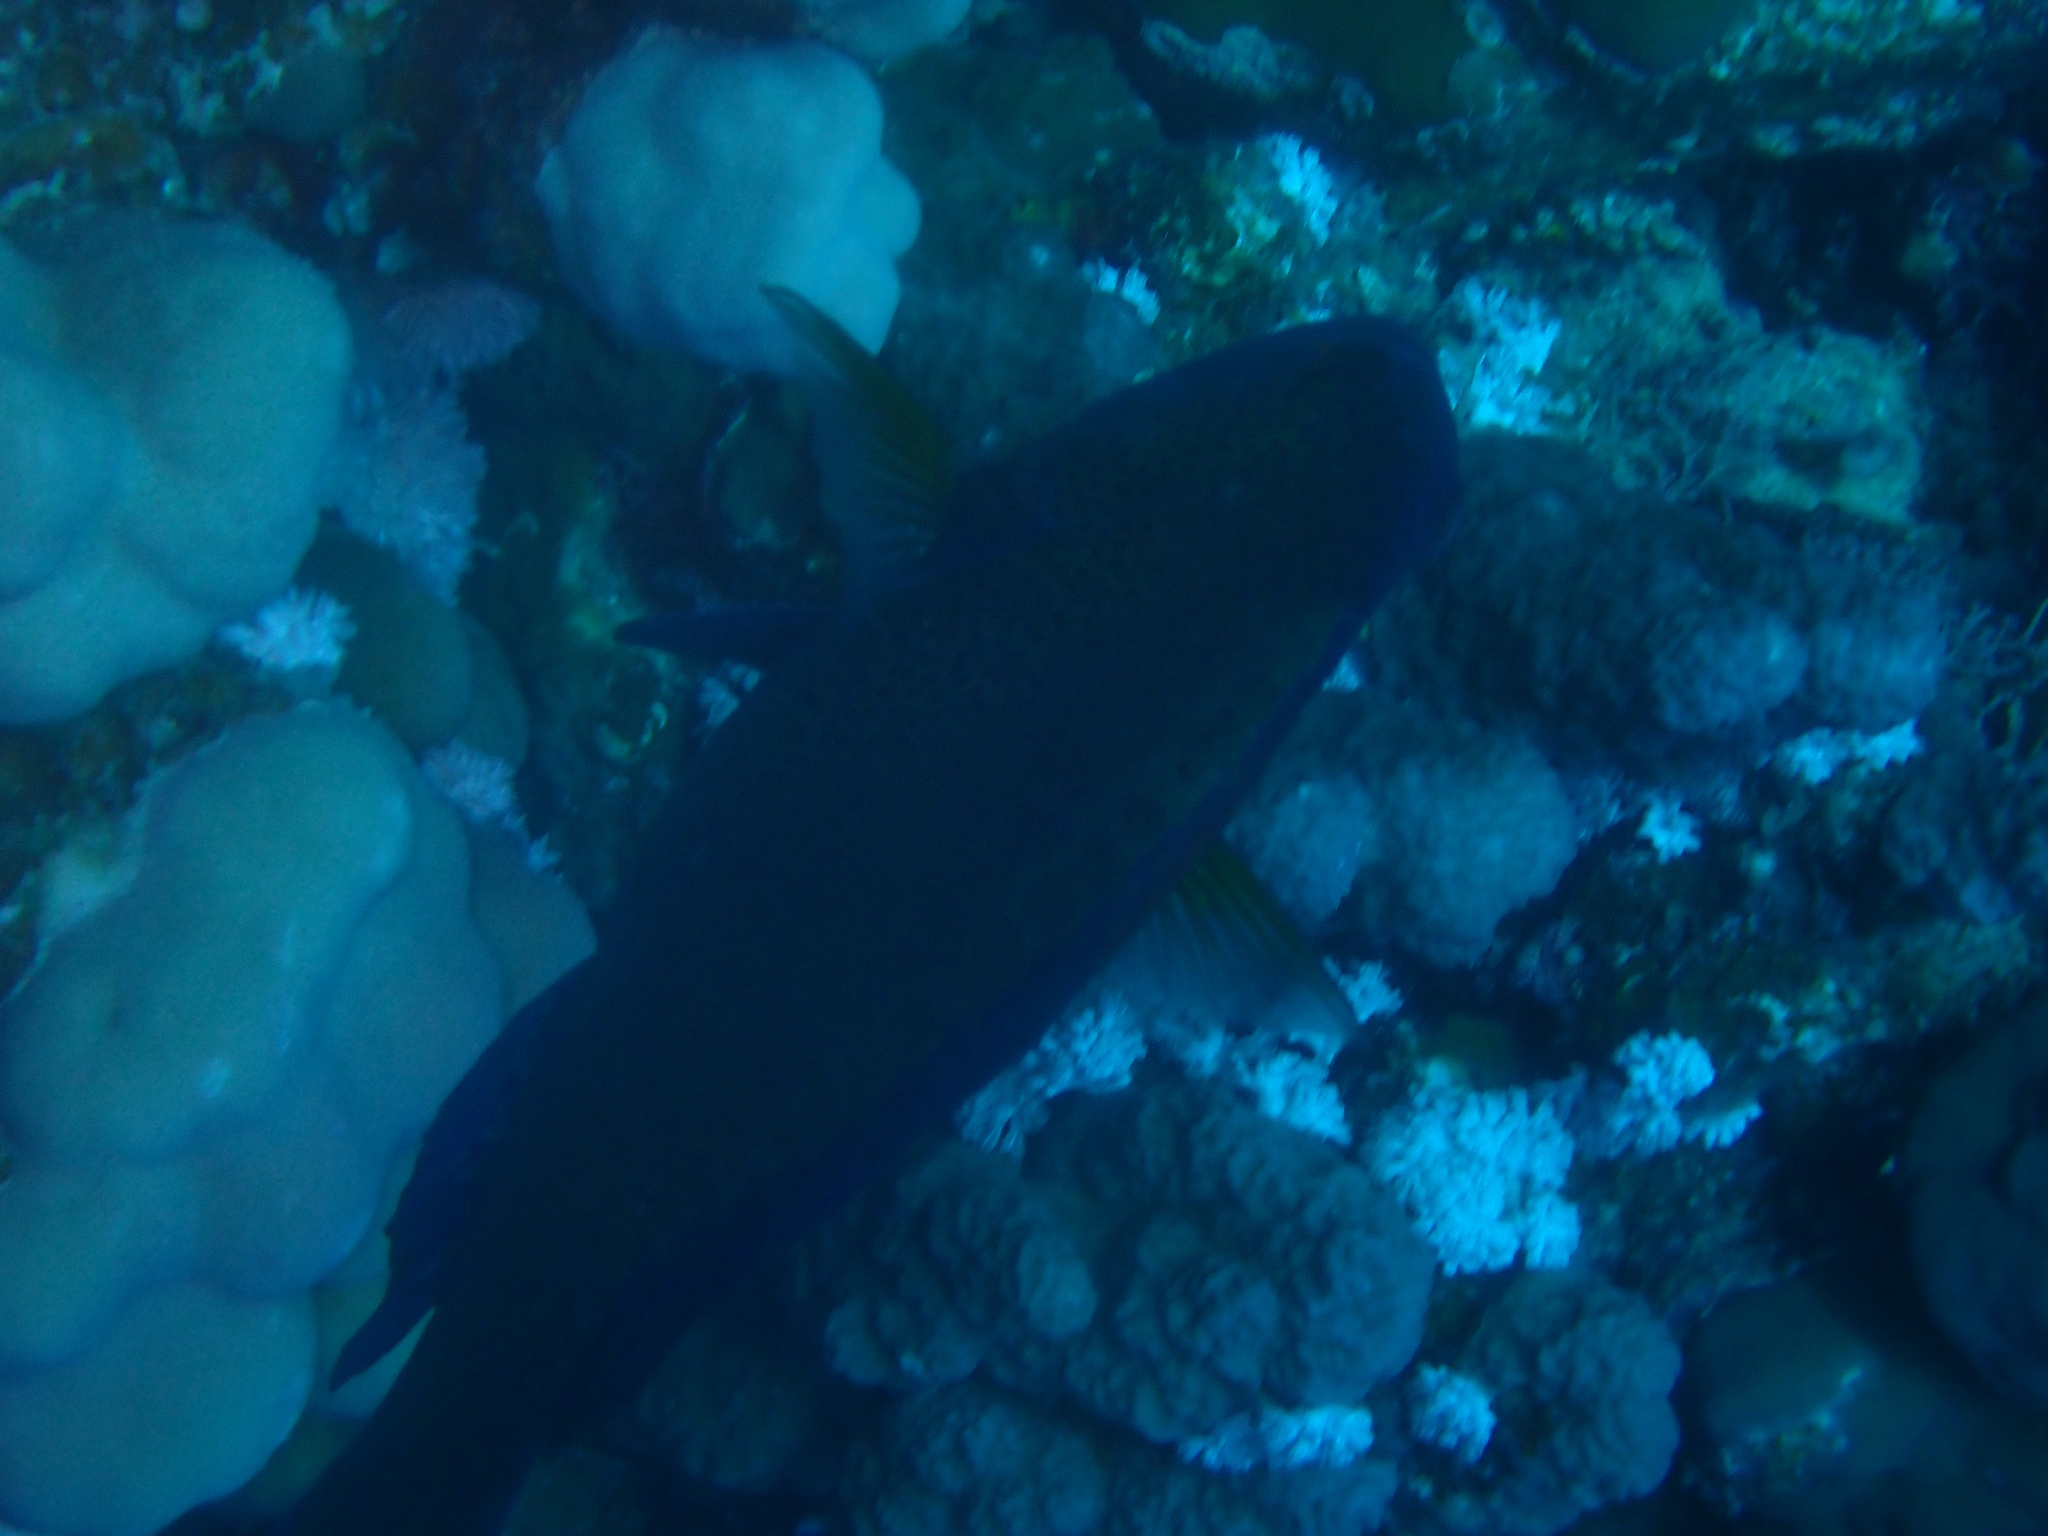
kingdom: Animalia
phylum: Chordata
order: Perciformes
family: Scaridae
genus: Calotomus
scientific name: Calotomus viridescens
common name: Dotted parrotfish
